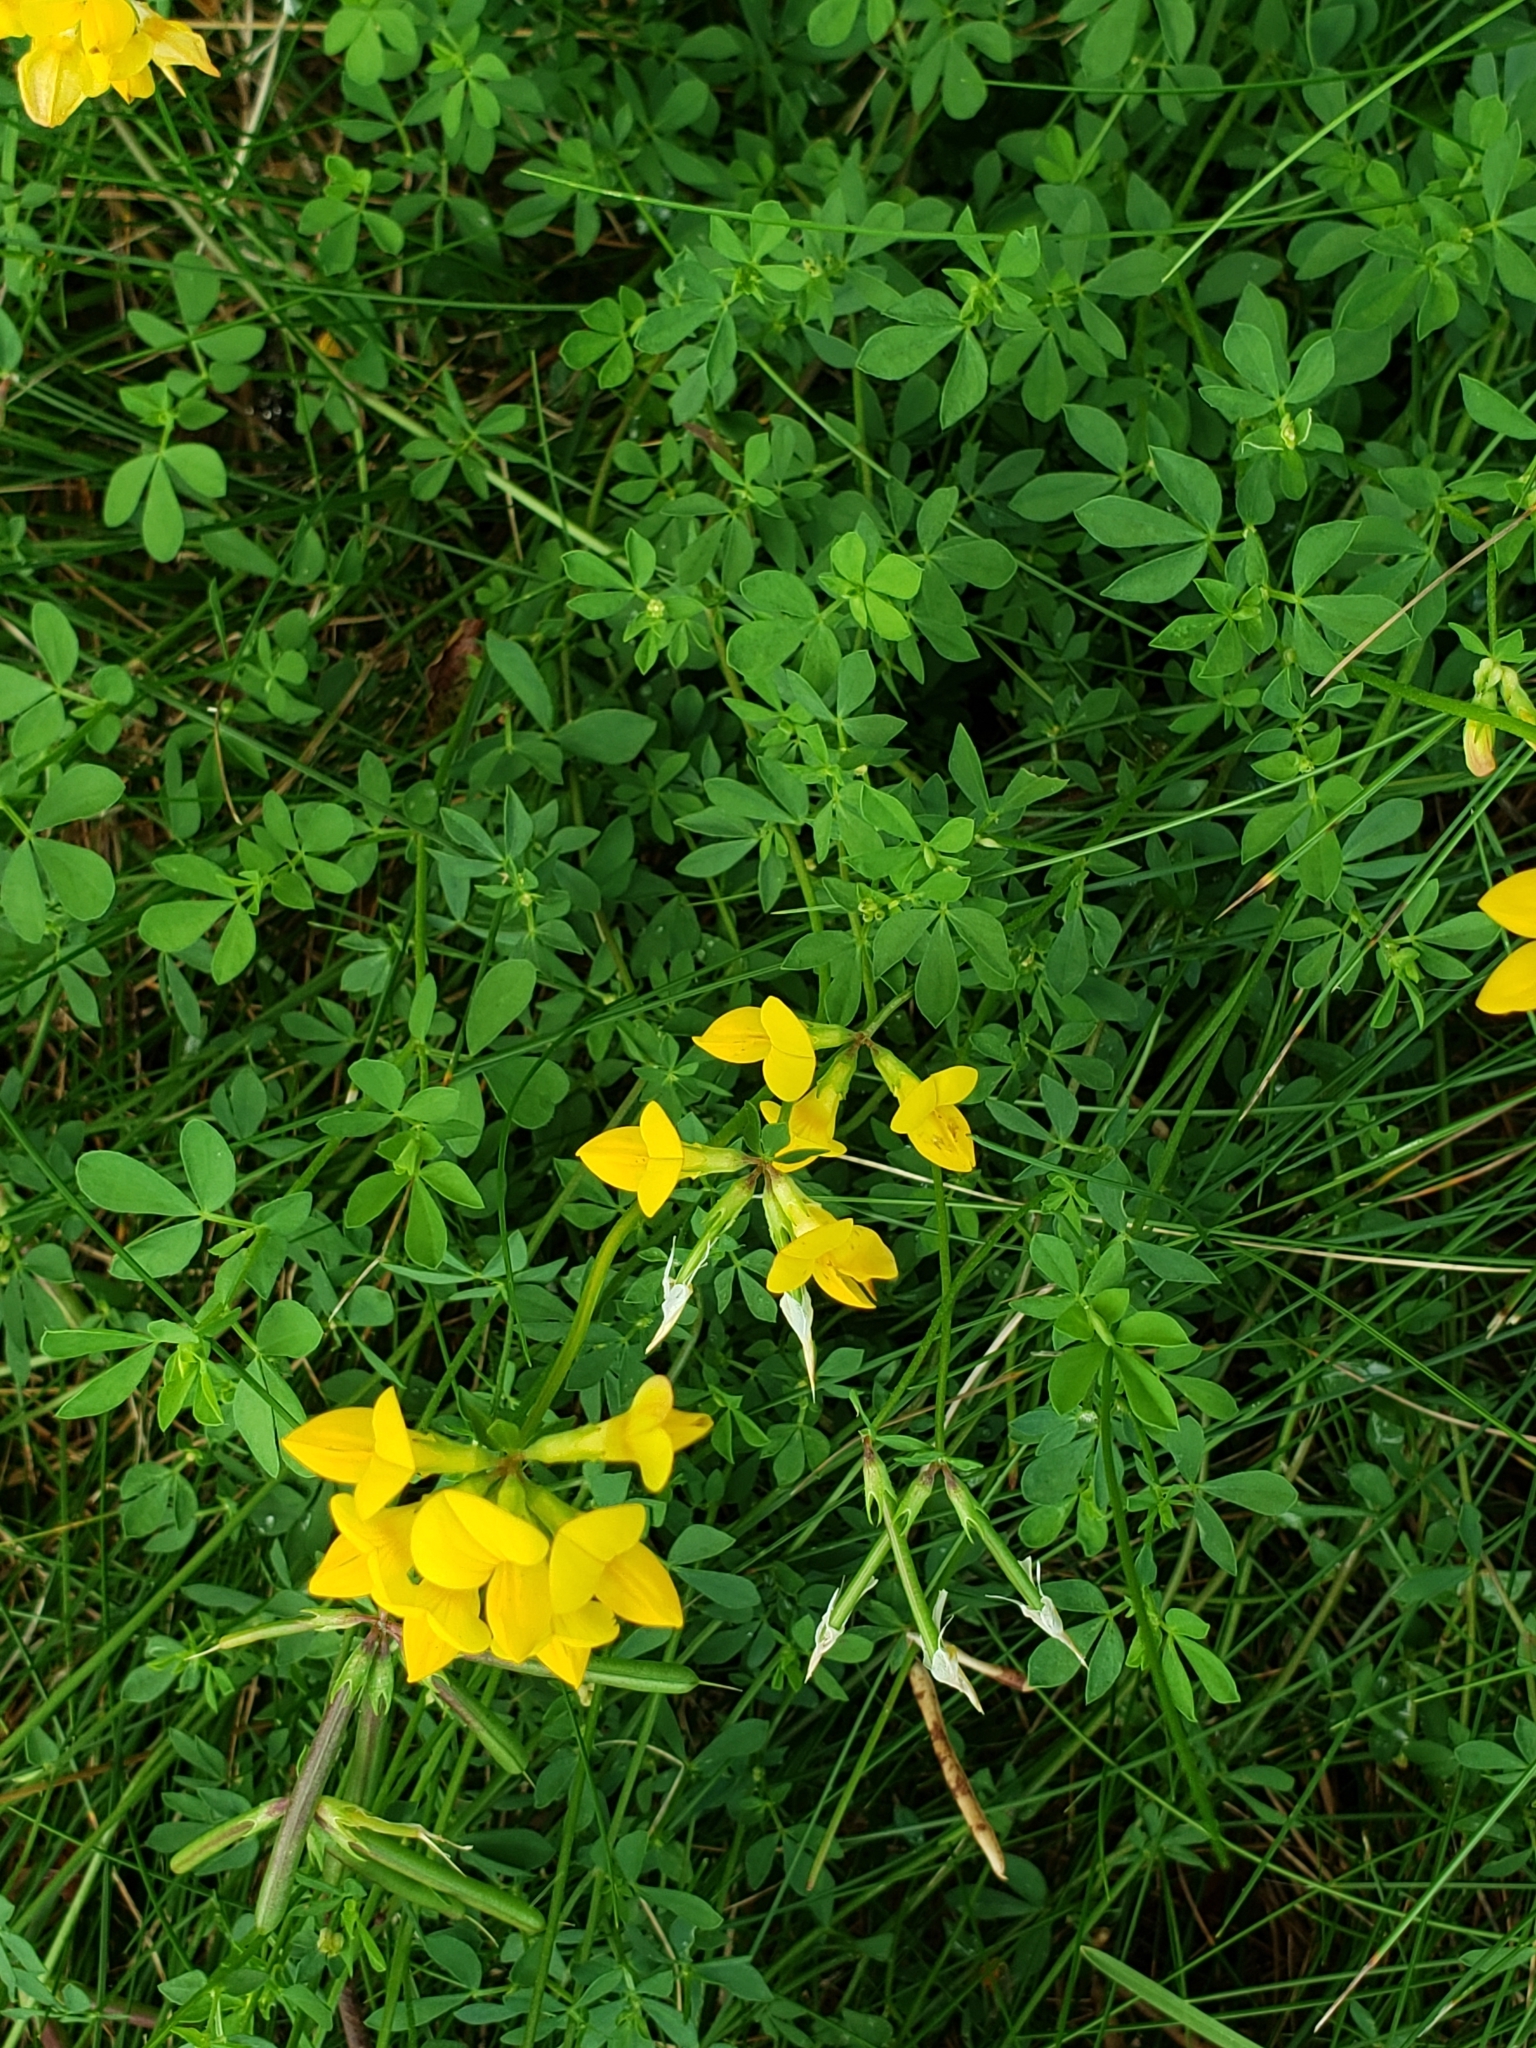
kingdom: Plantae
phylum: Tracheophyta
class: Magnoliopsida
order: Fabales
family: Fabaceae
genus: Lotus
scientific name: Lotus corniculatus
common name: Common bird's-foot-trefoil
